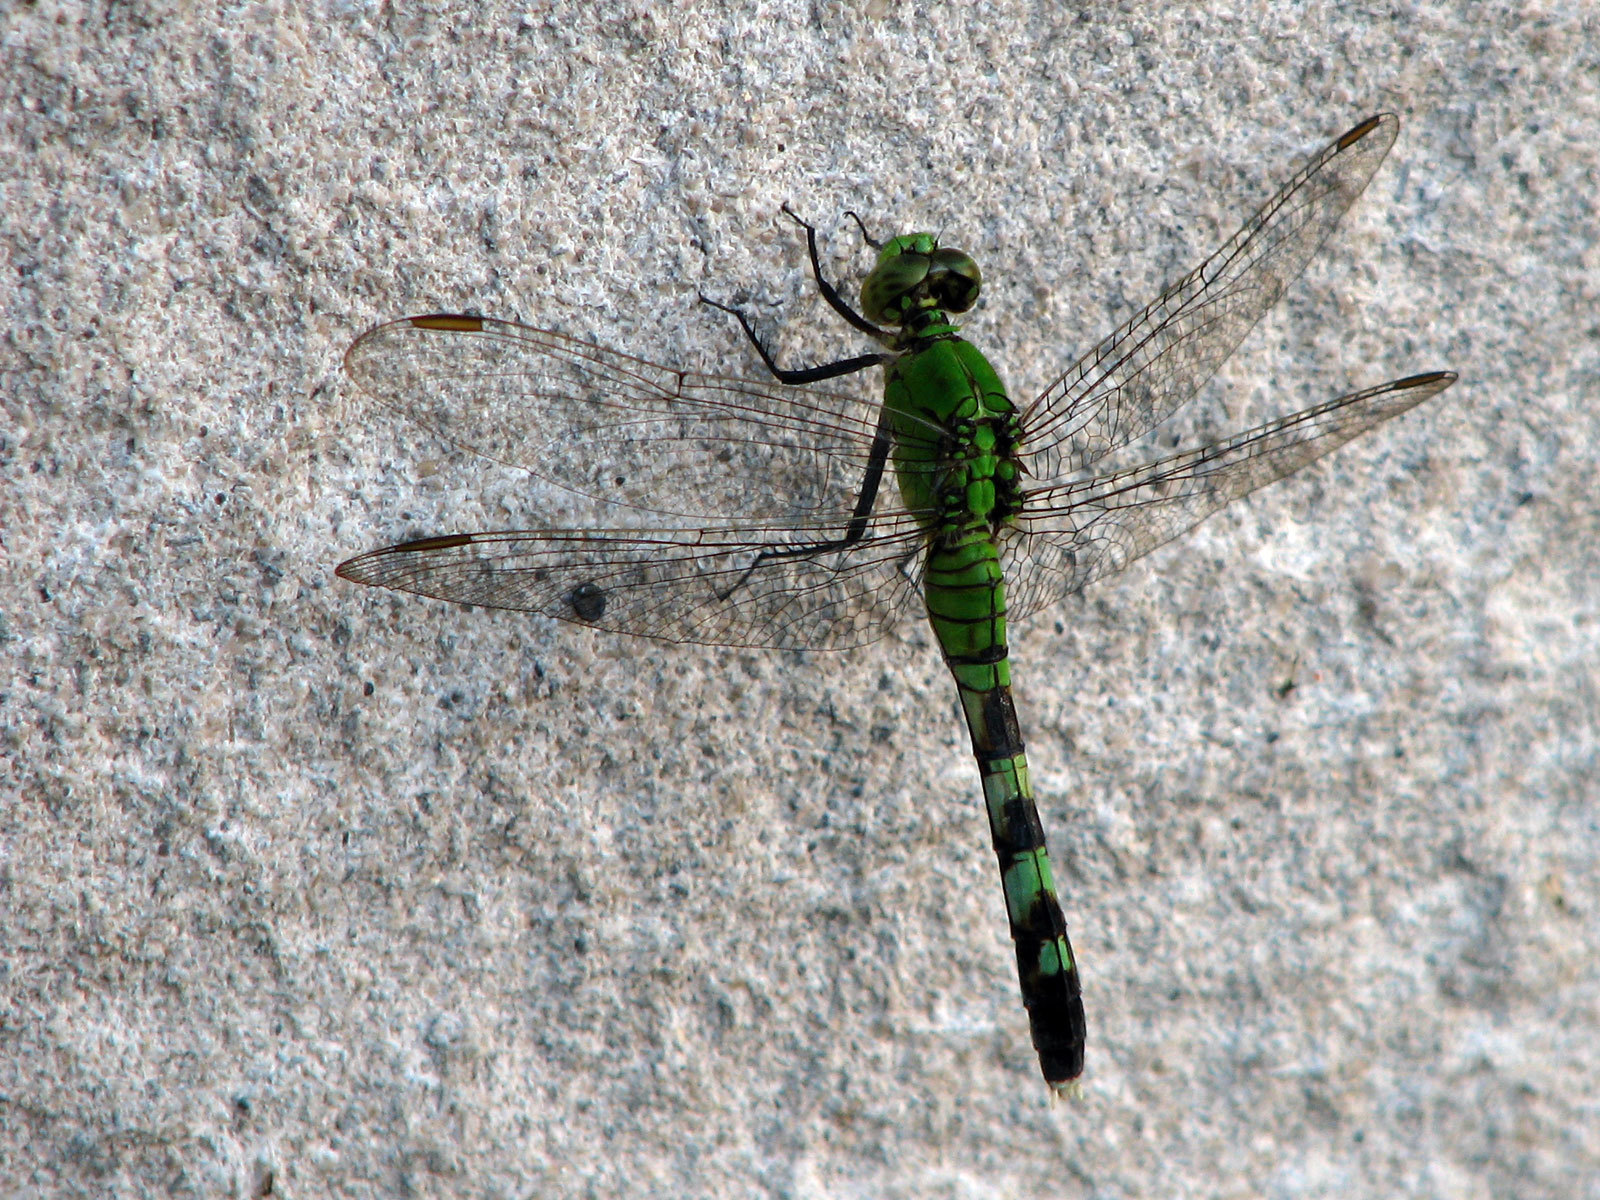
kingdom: Animalia
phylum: Arthropoda
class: Insecta
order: Odonata
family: Libellulidae
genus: Erythemis
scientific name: Erythemis simplicicollis
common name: Eastern pondhawk
